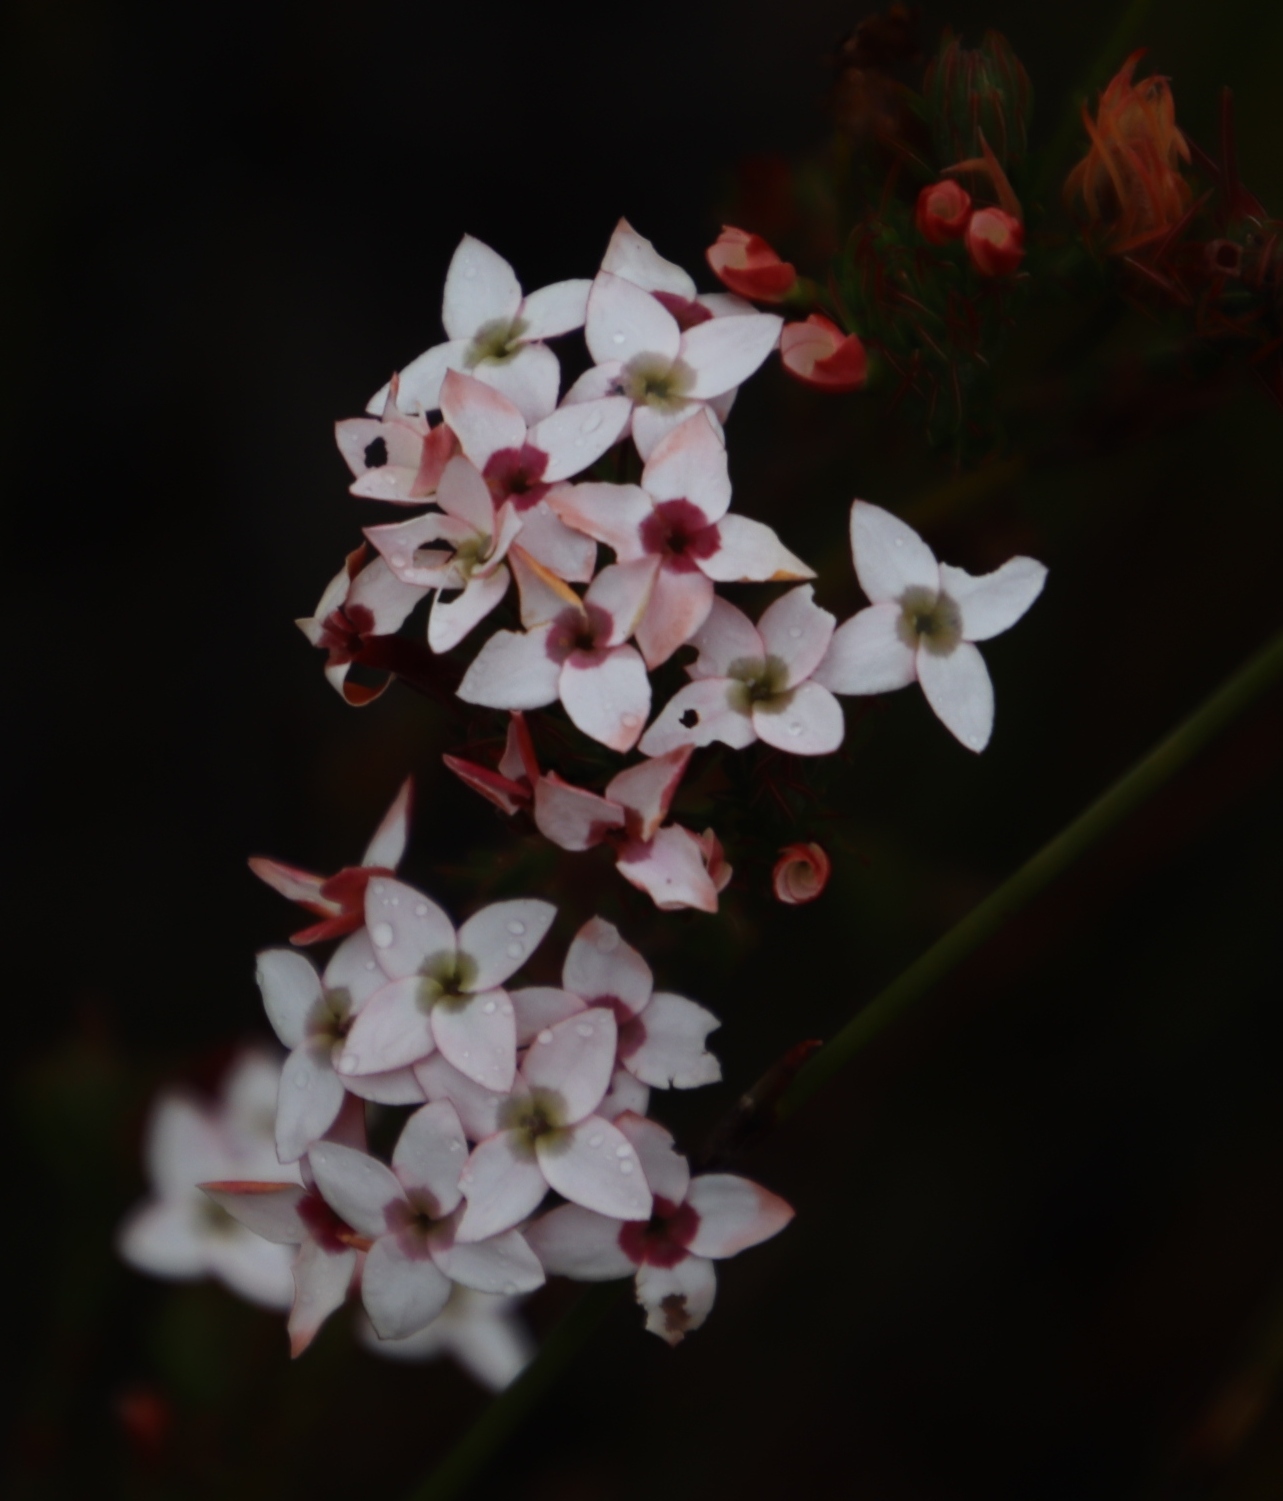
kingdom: Plantae
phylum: Tracheophyta
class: Magnoliopsida
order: Ericales
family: Ericaceae
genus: Erica
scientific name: Erica fastigiata
